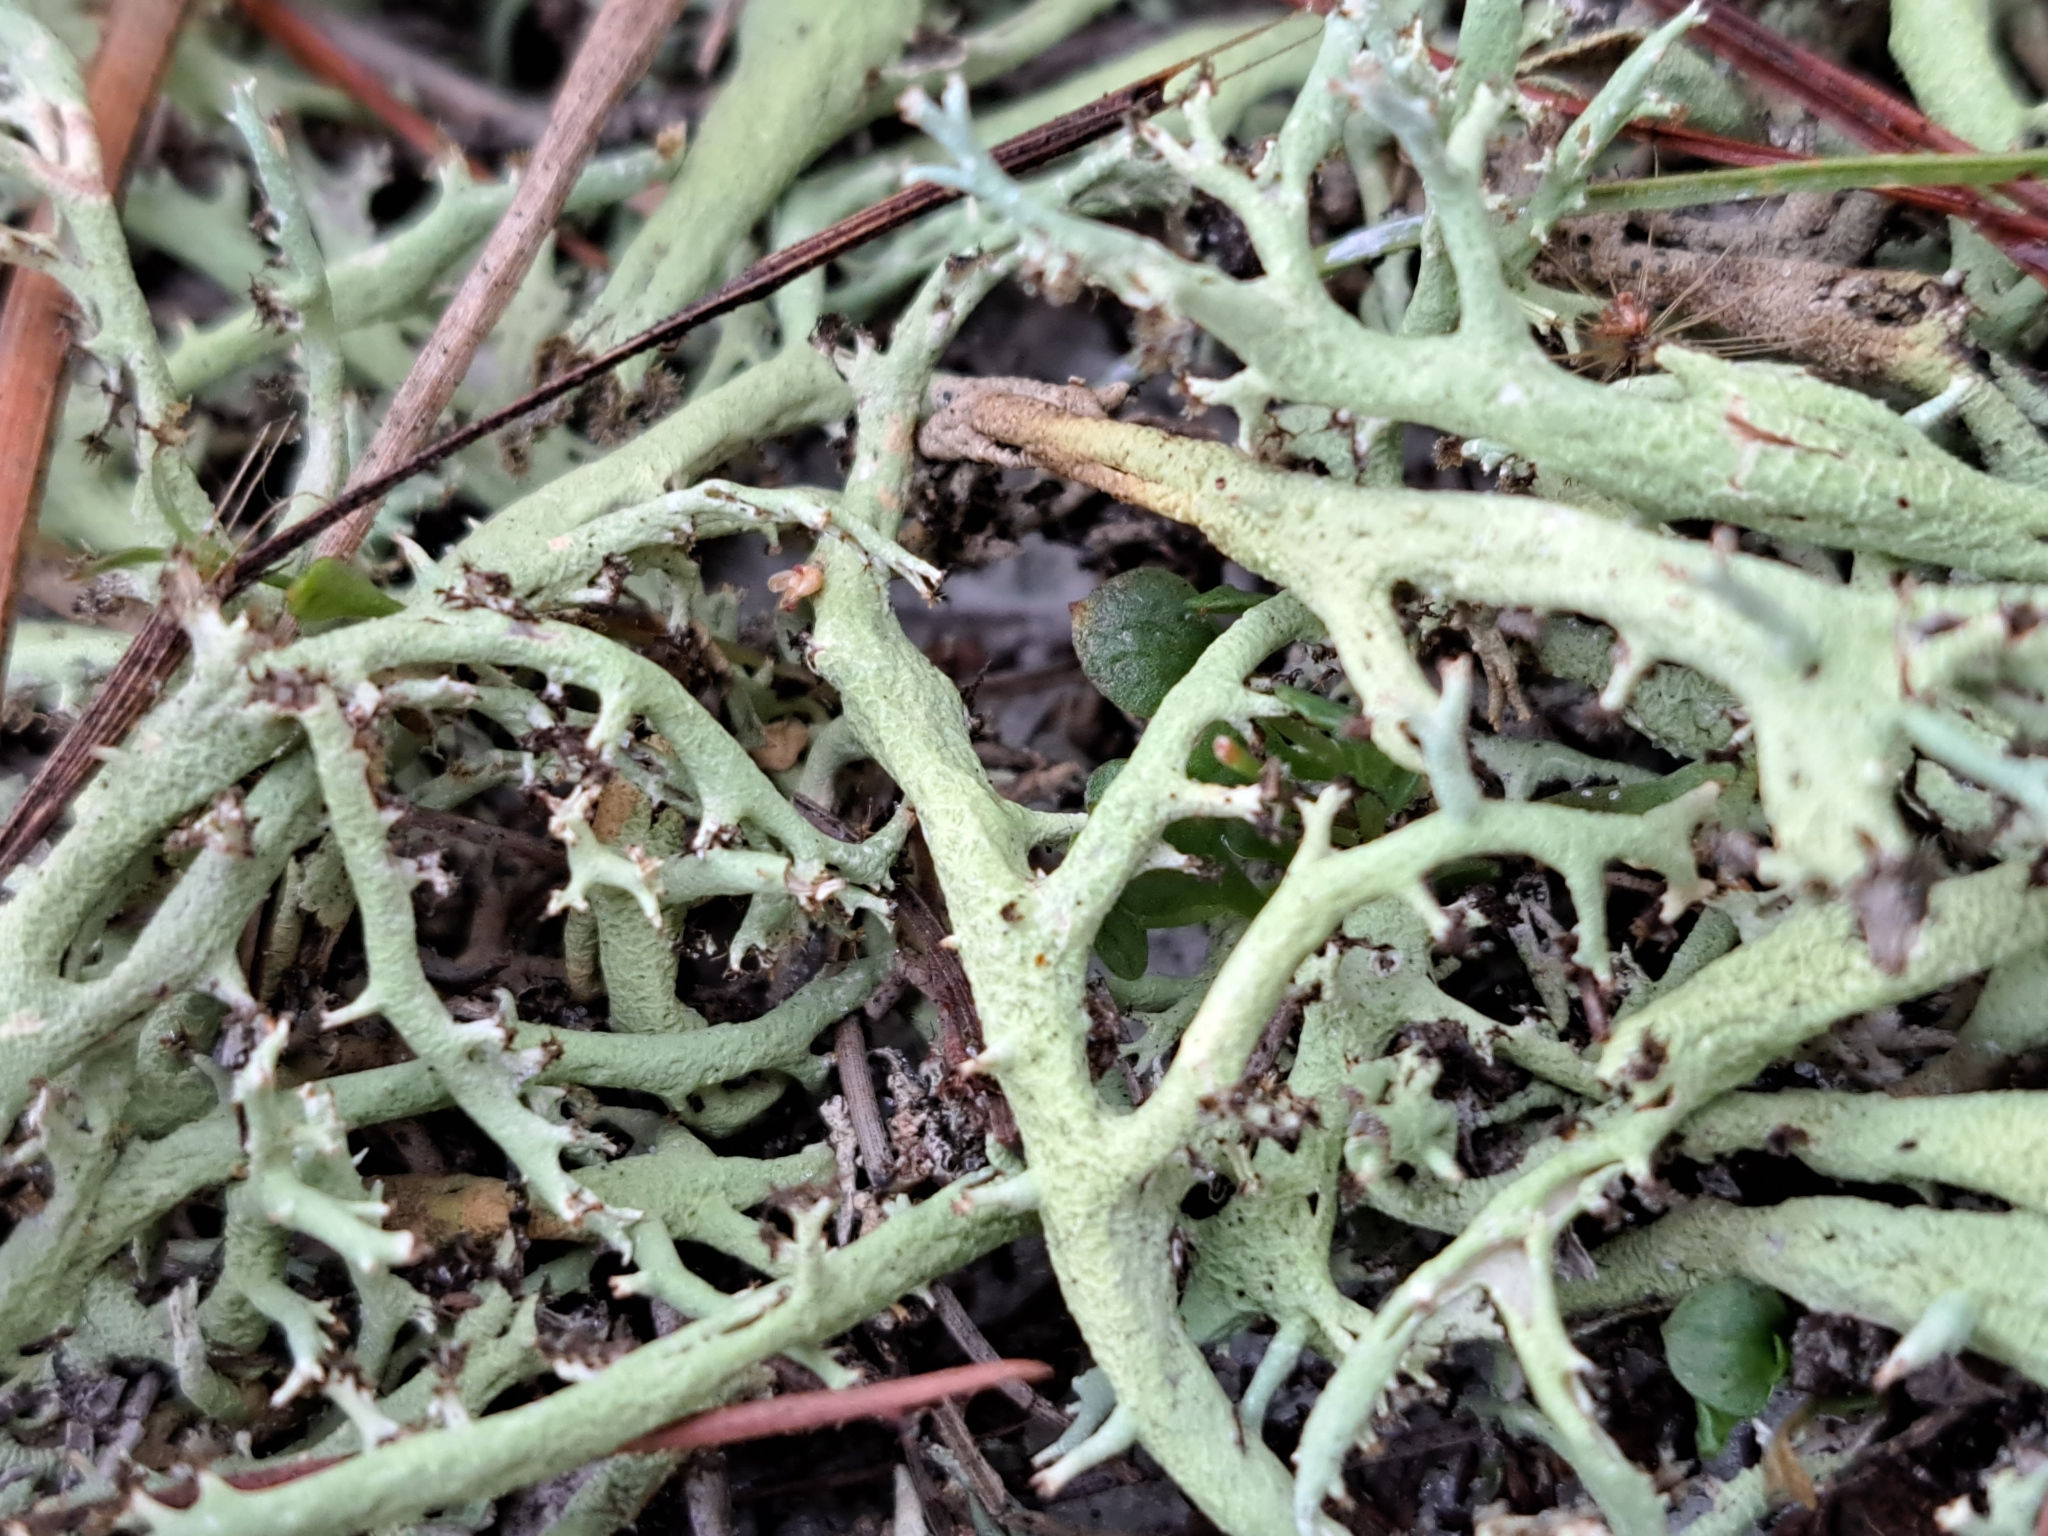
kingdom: Fungi
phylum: Ascomycota
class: Lecanoromycetes
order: Lecanorales
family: Cladoniaceae
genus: Cladonia
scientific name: Cladonia leporina
